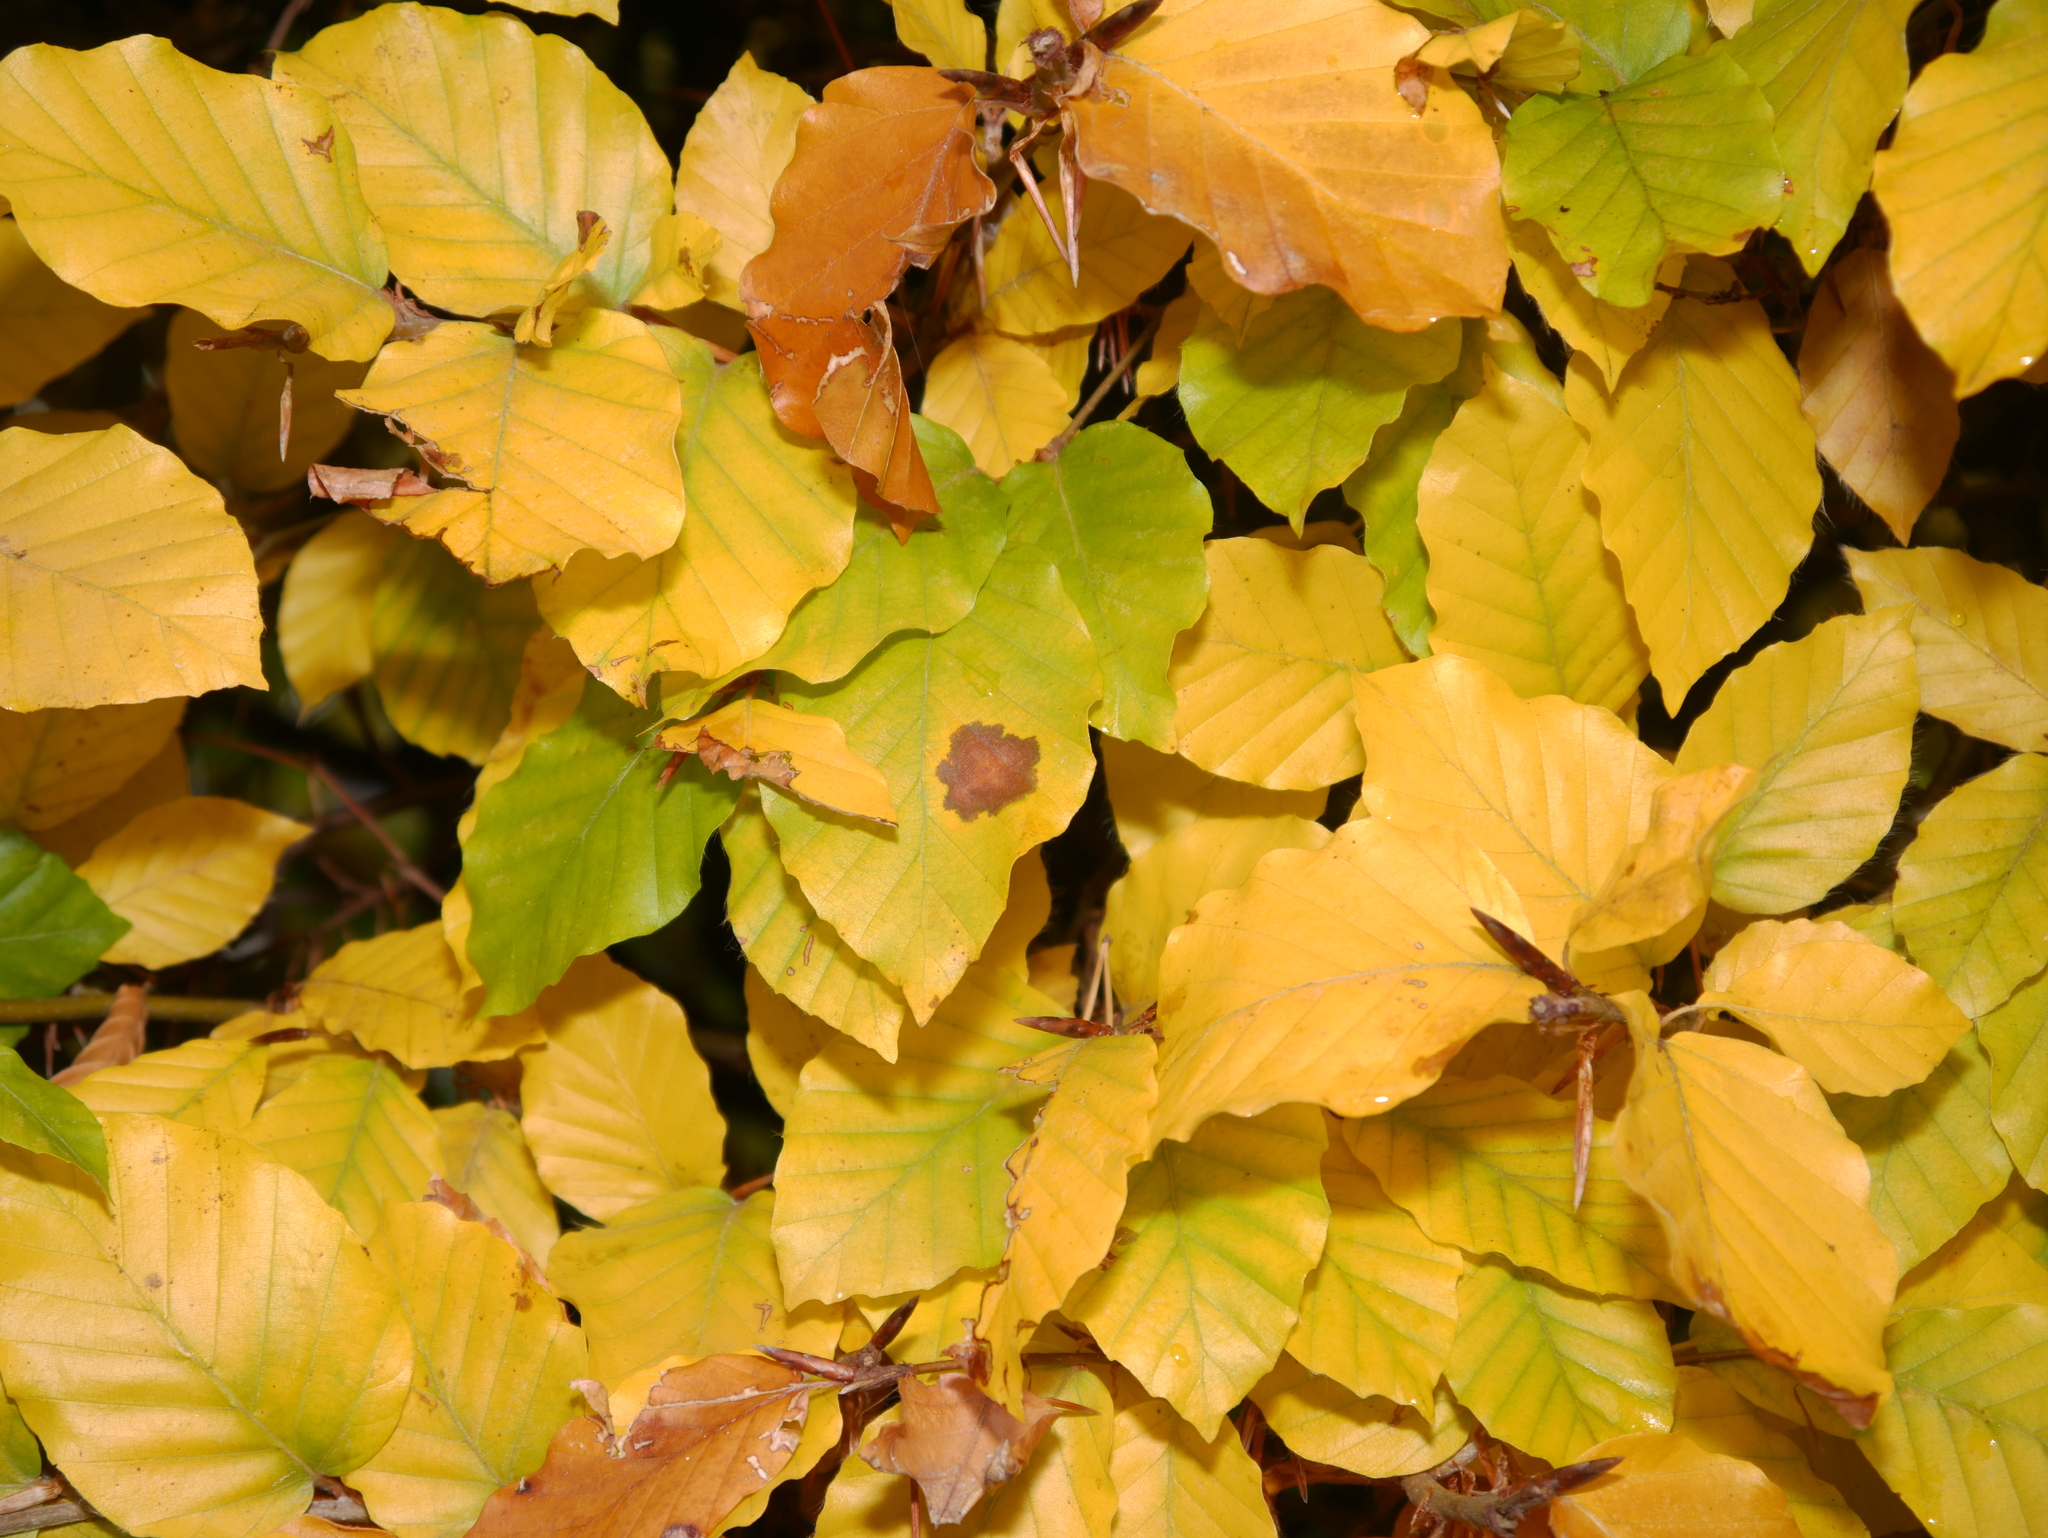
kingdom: Plantae
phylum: Tracheophyta
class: Magnoliopsida
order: Fagales
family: Fagaceae
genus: Fagus
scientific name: Fagus sylvatica
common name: Beech
